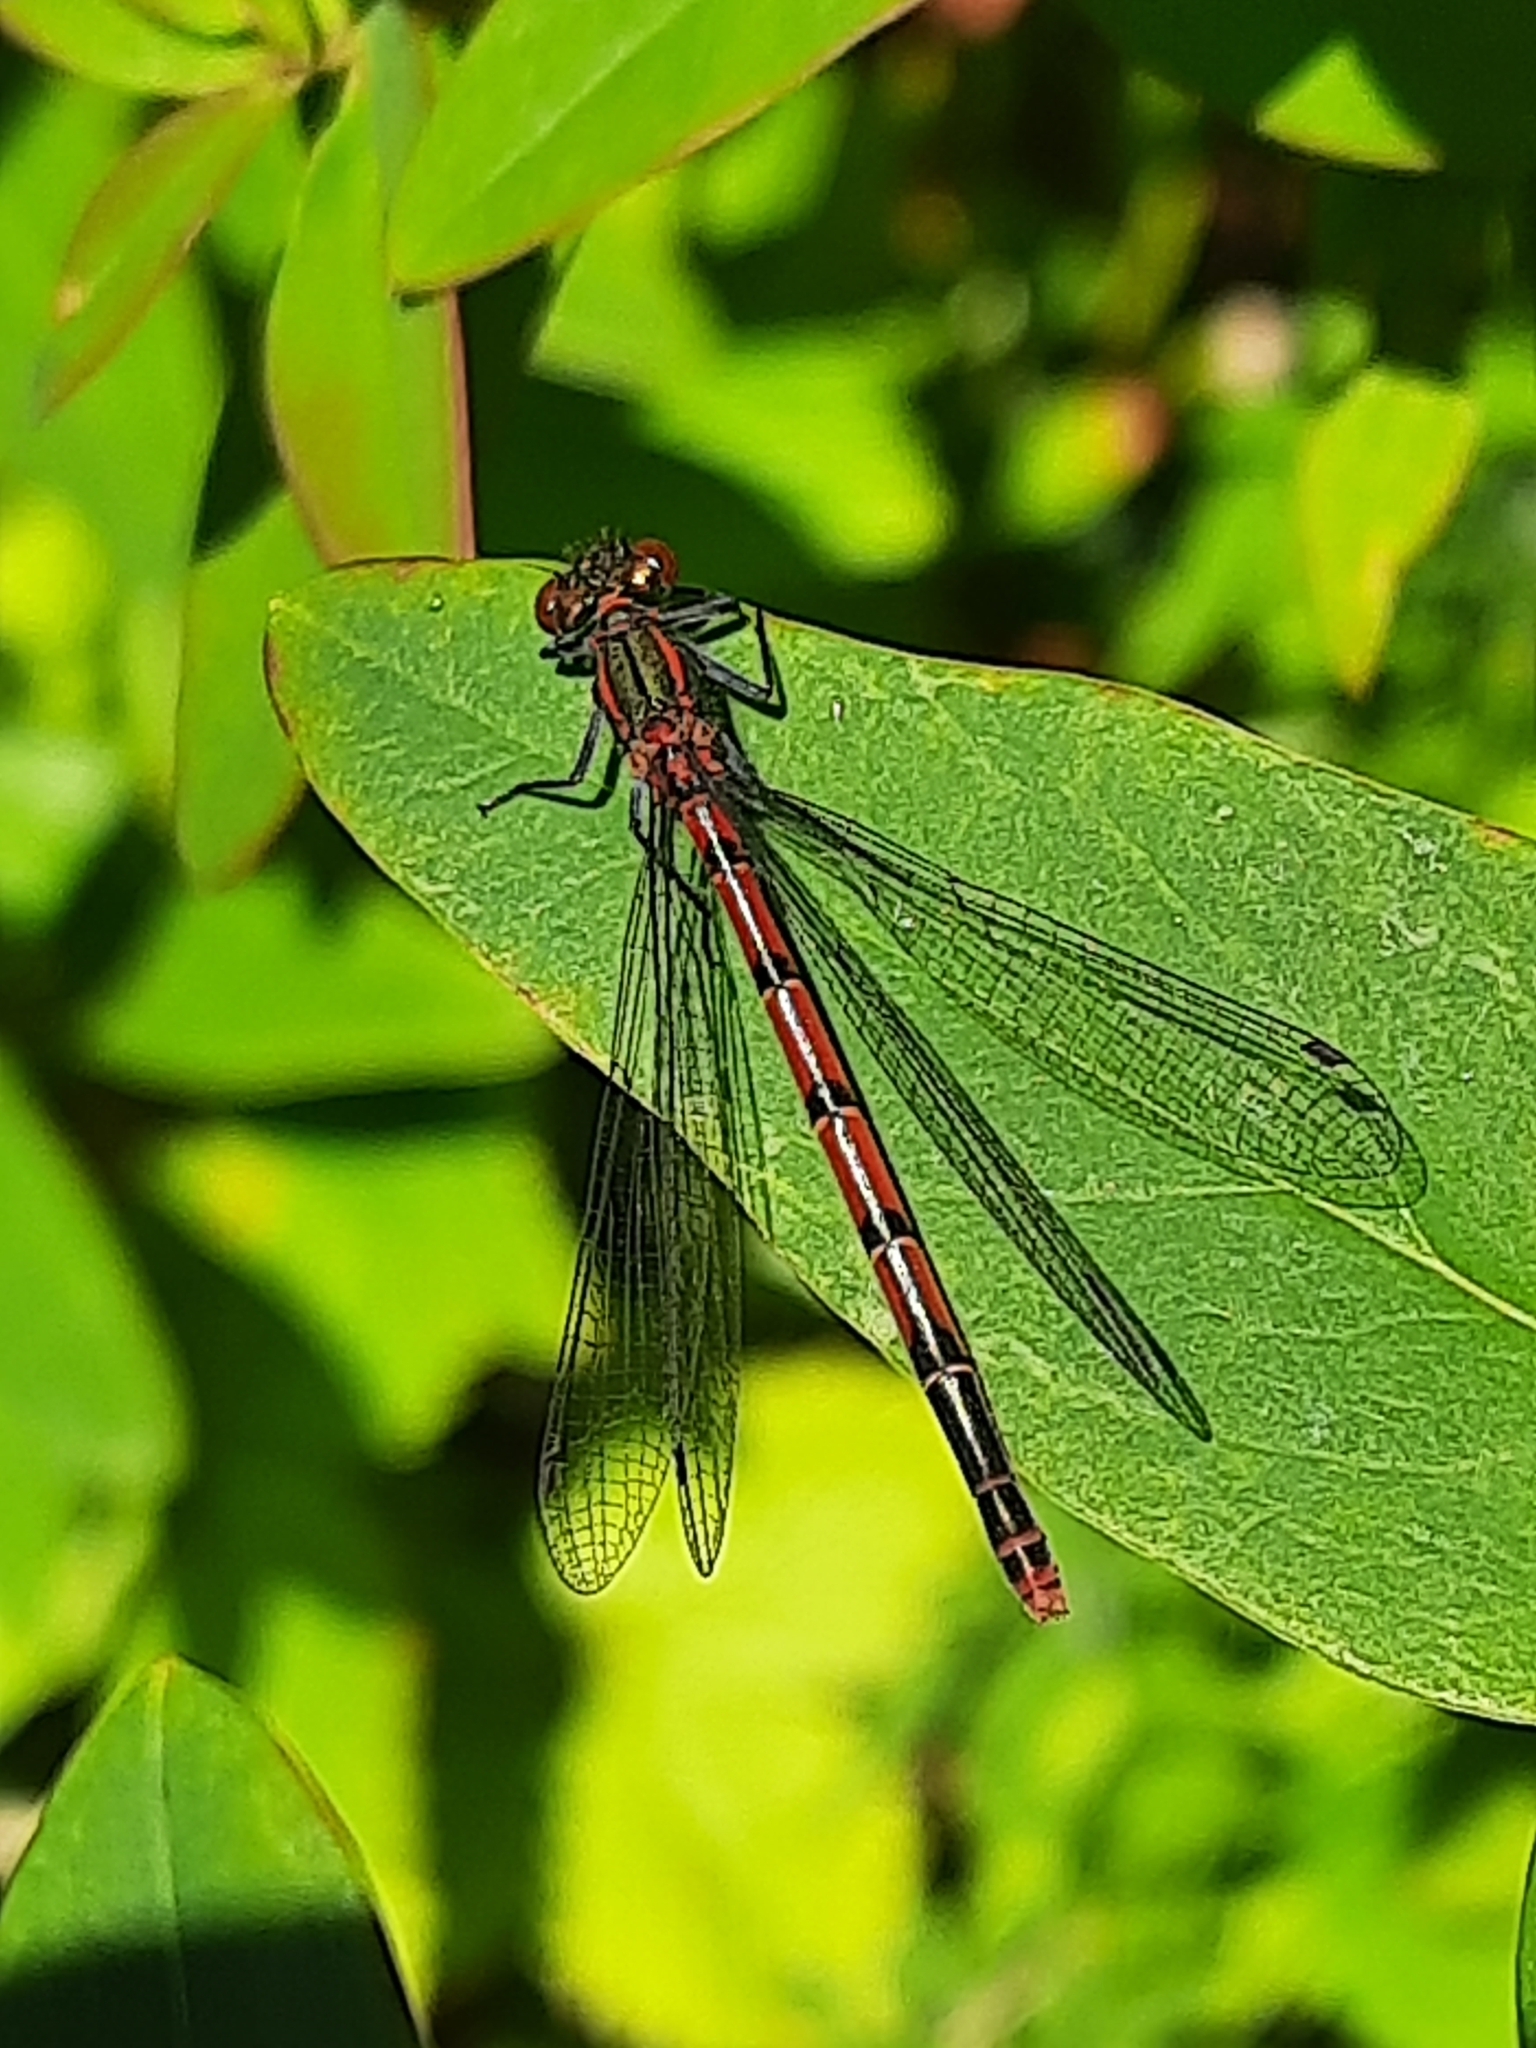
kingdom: Animalia
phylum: Arthropoda
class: Insecta
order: Odonata
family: Coenagrionidae
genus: Pyrrhosoma
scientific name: Pyrrhosoma nymphula
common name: Large red damsel
